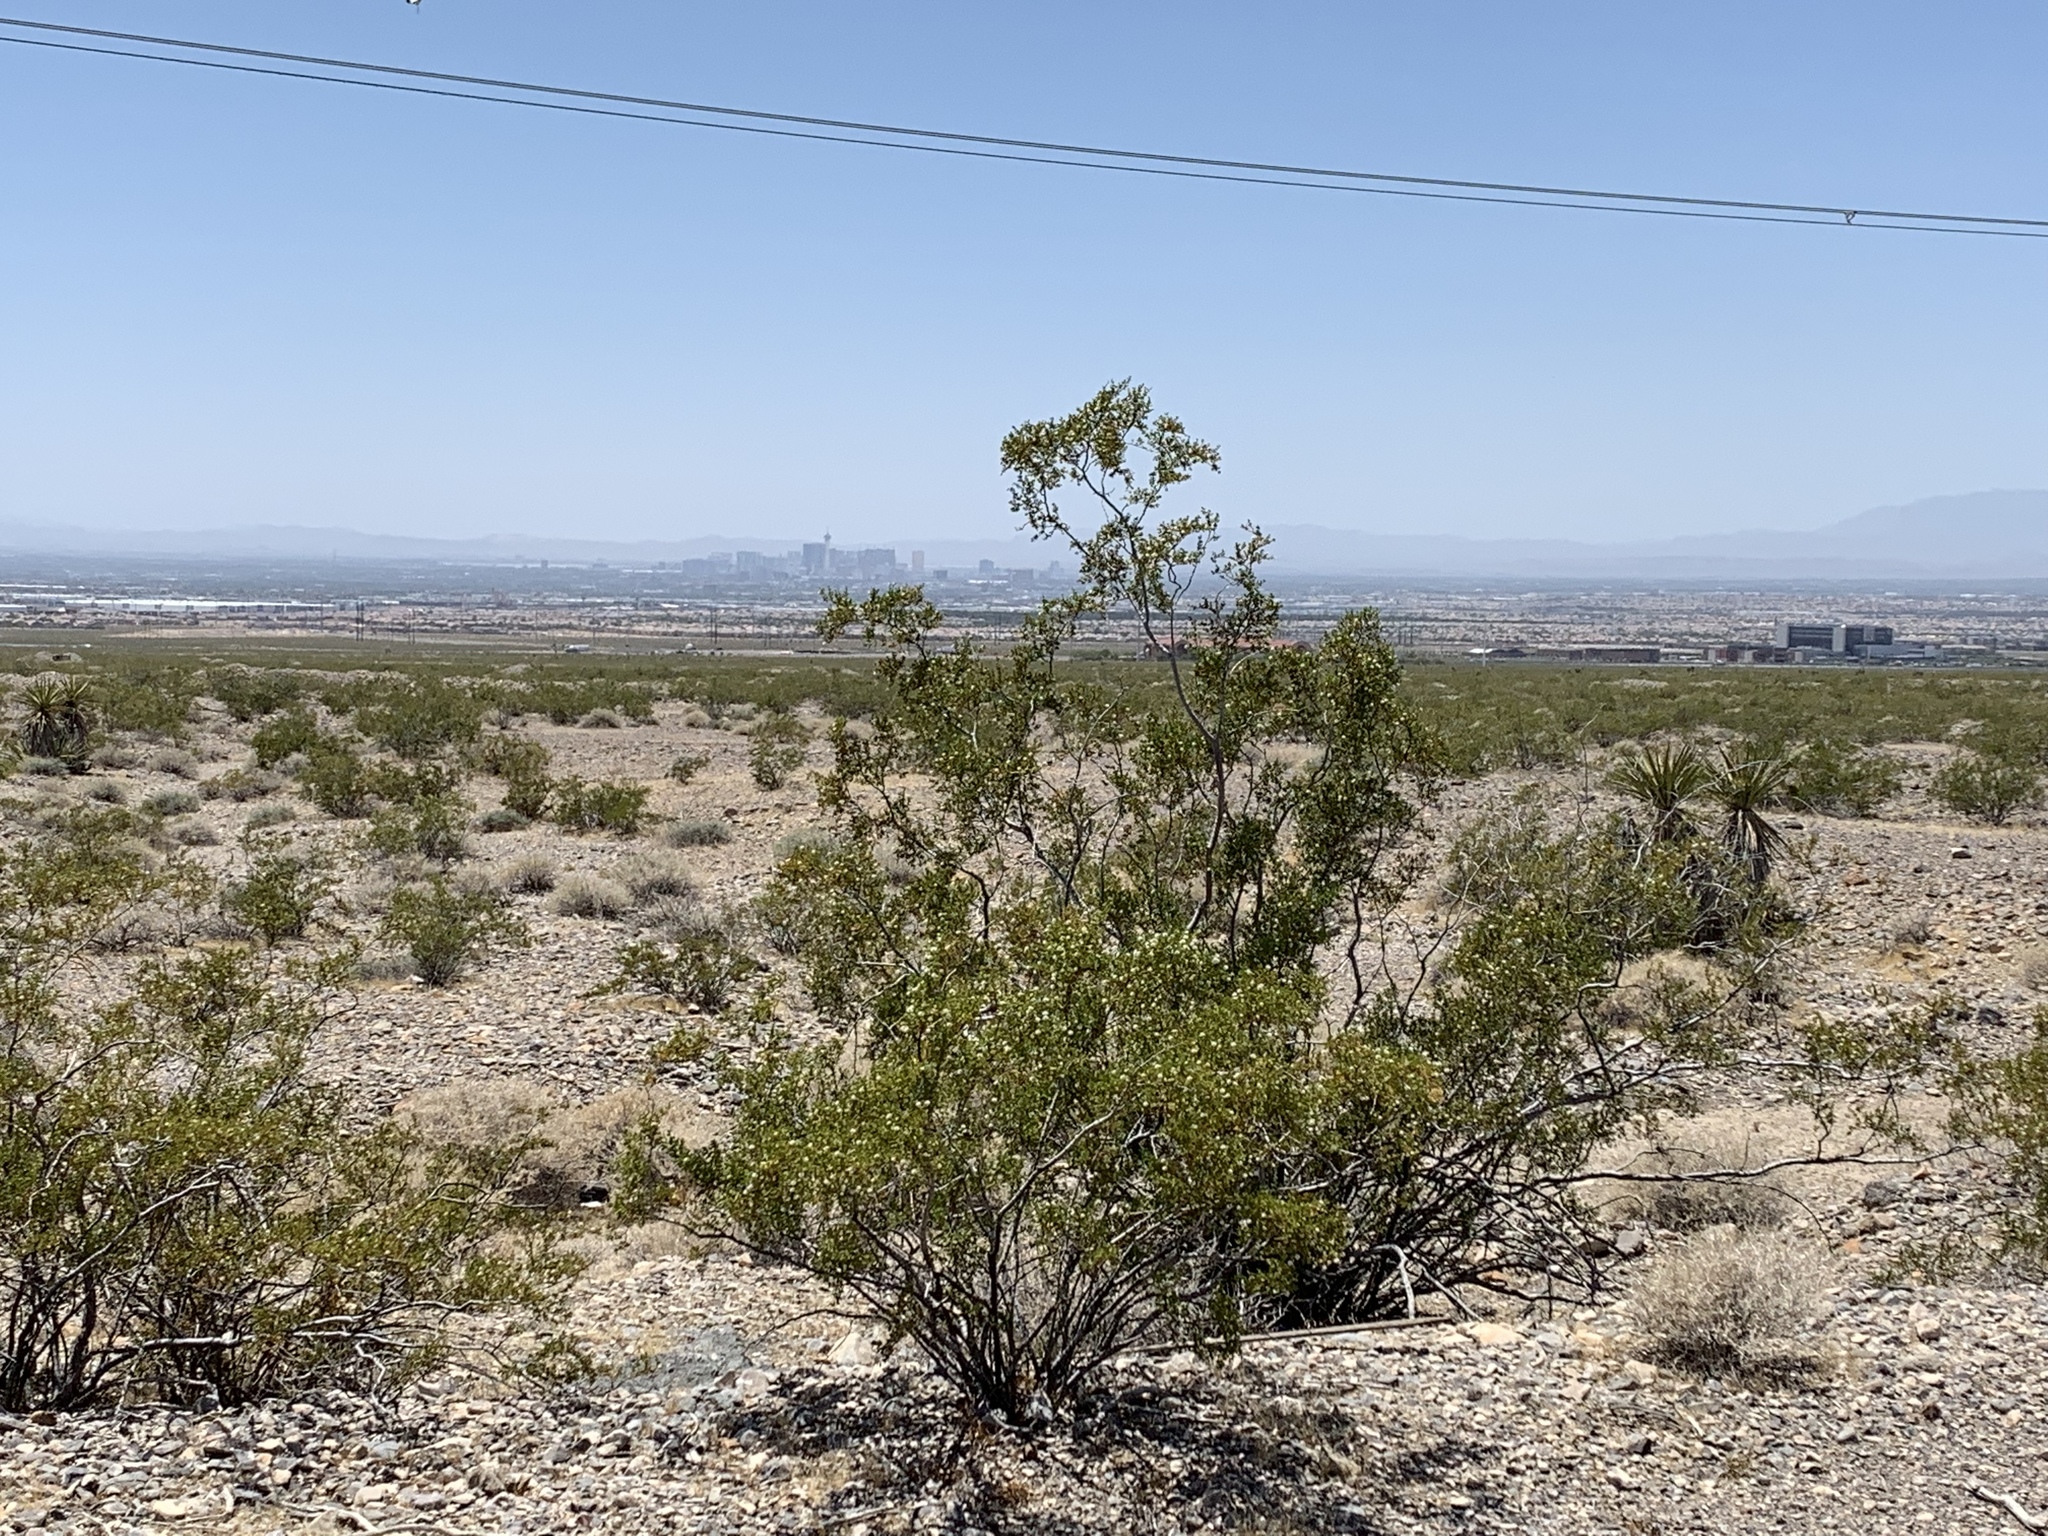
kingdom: Plantae
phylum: Tracheophyta
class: Magnoliopsida
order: Zygophyllales
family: Zygophyllaceae
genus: Larrea
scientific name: Larrea tridentata
